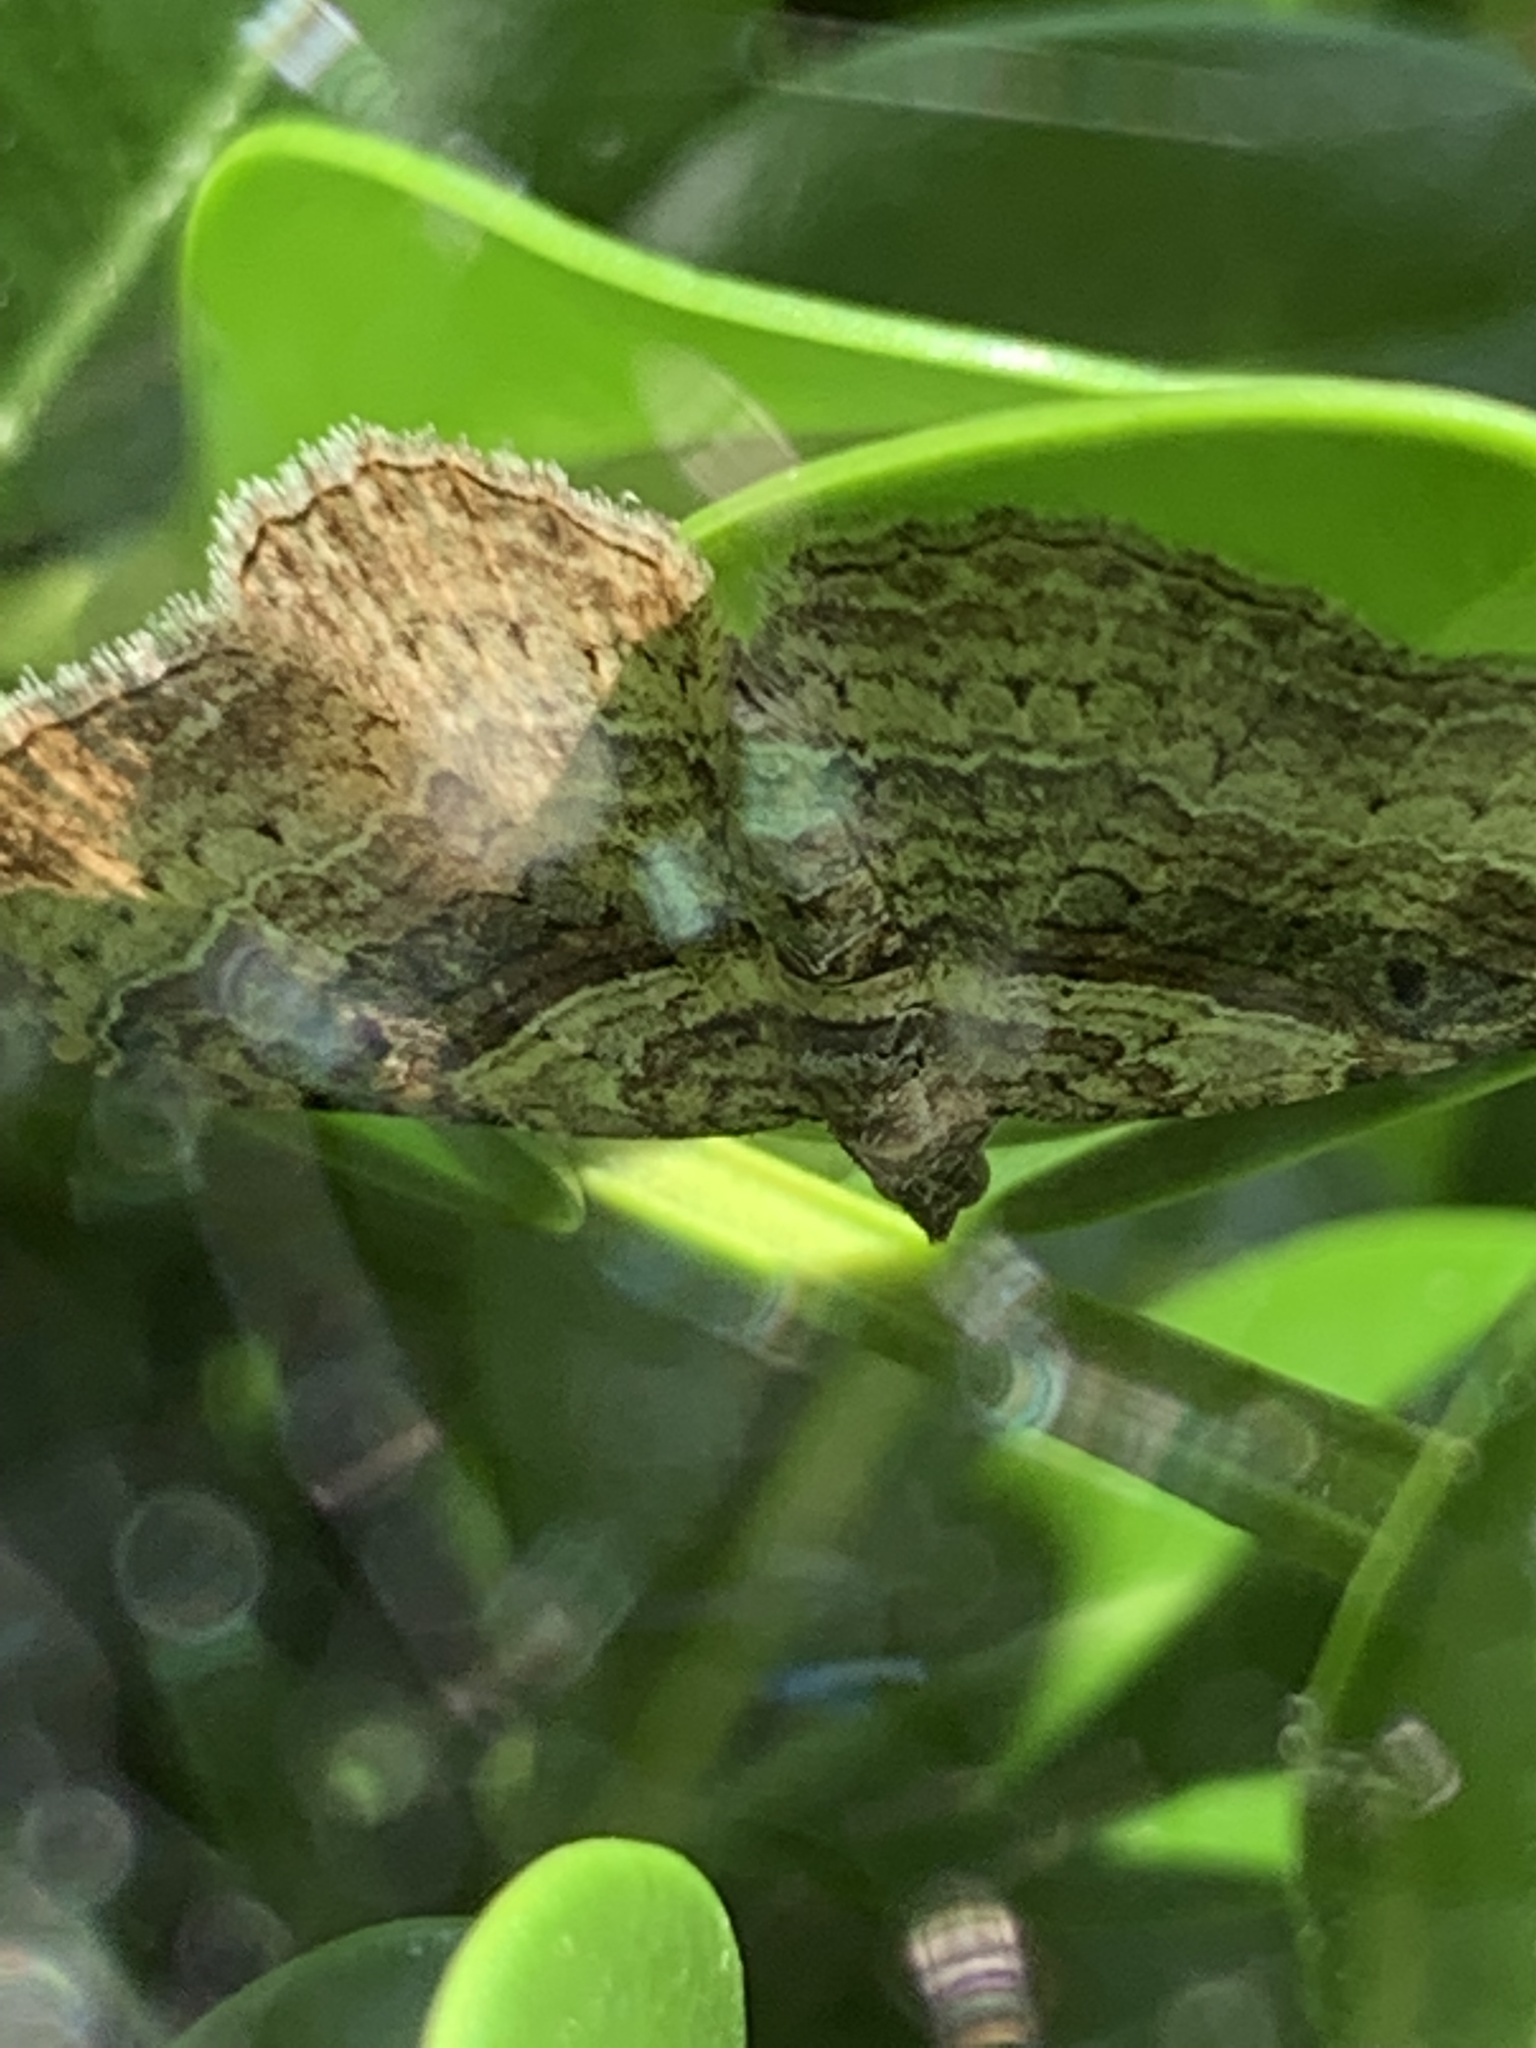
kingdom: Animalia
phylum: Arthropoda
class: Insecta
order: Lepidoptera
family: Geometridae
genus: Costaconvexa
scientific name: Costaconvexa centrostrigaria
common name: Bent-line carpet
